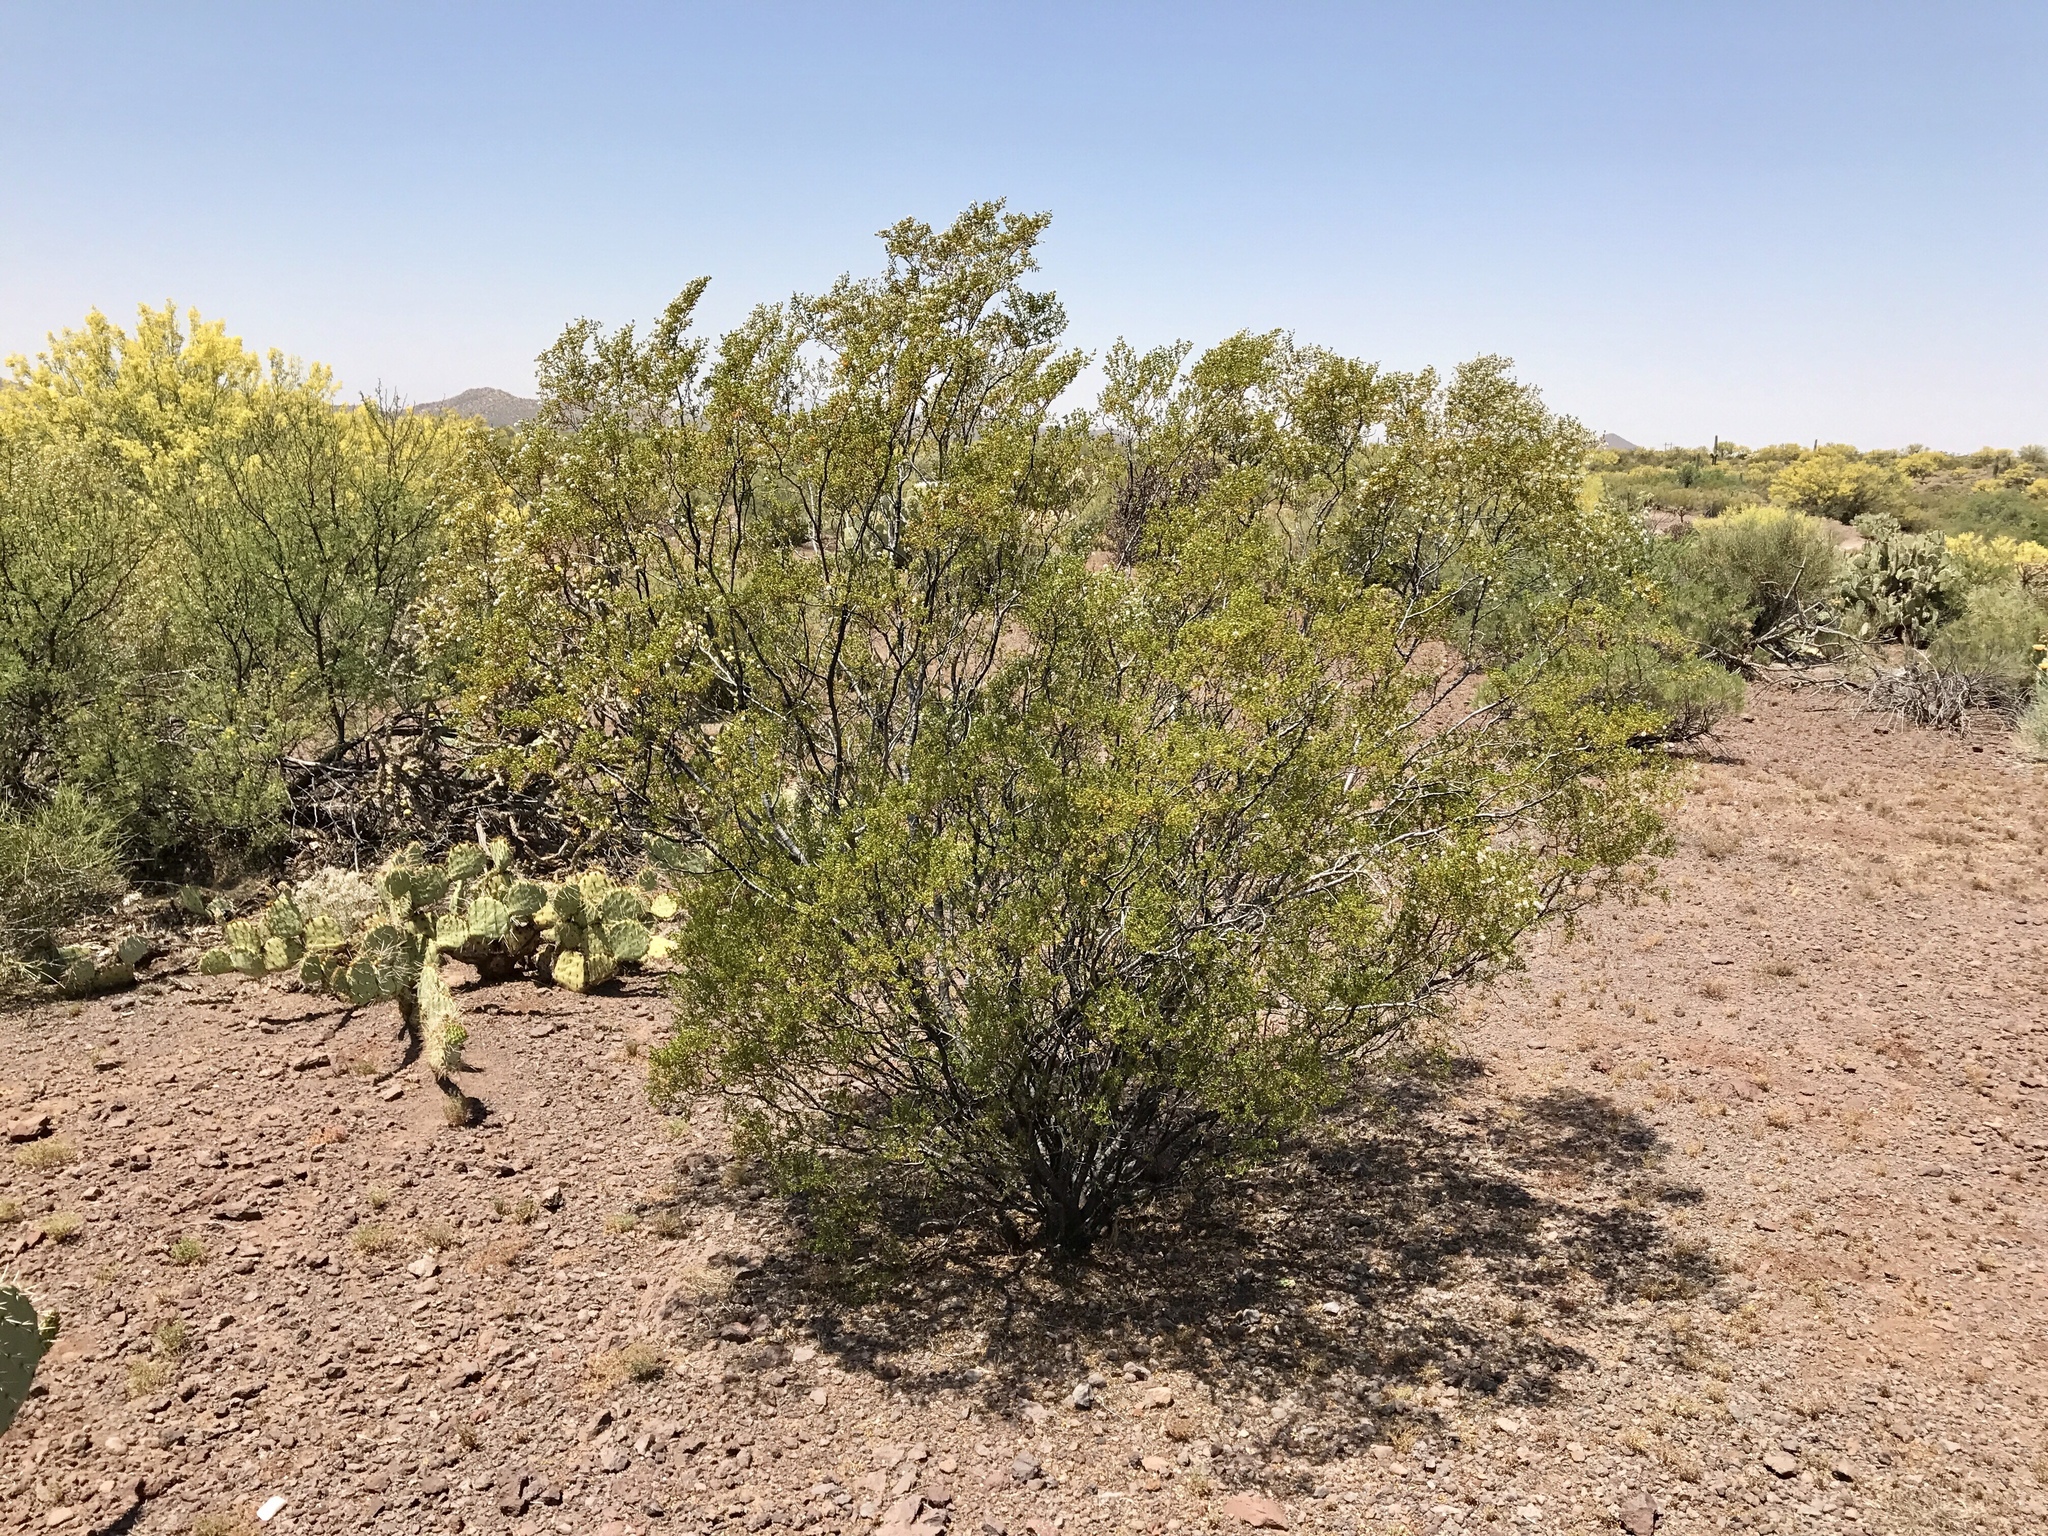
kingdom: Plantae
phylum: Tracheophyta
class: Magnoliopsida
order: Zygophyllales
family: Zygophyllaceae
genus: Larrea
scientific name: Larrea tridentata
